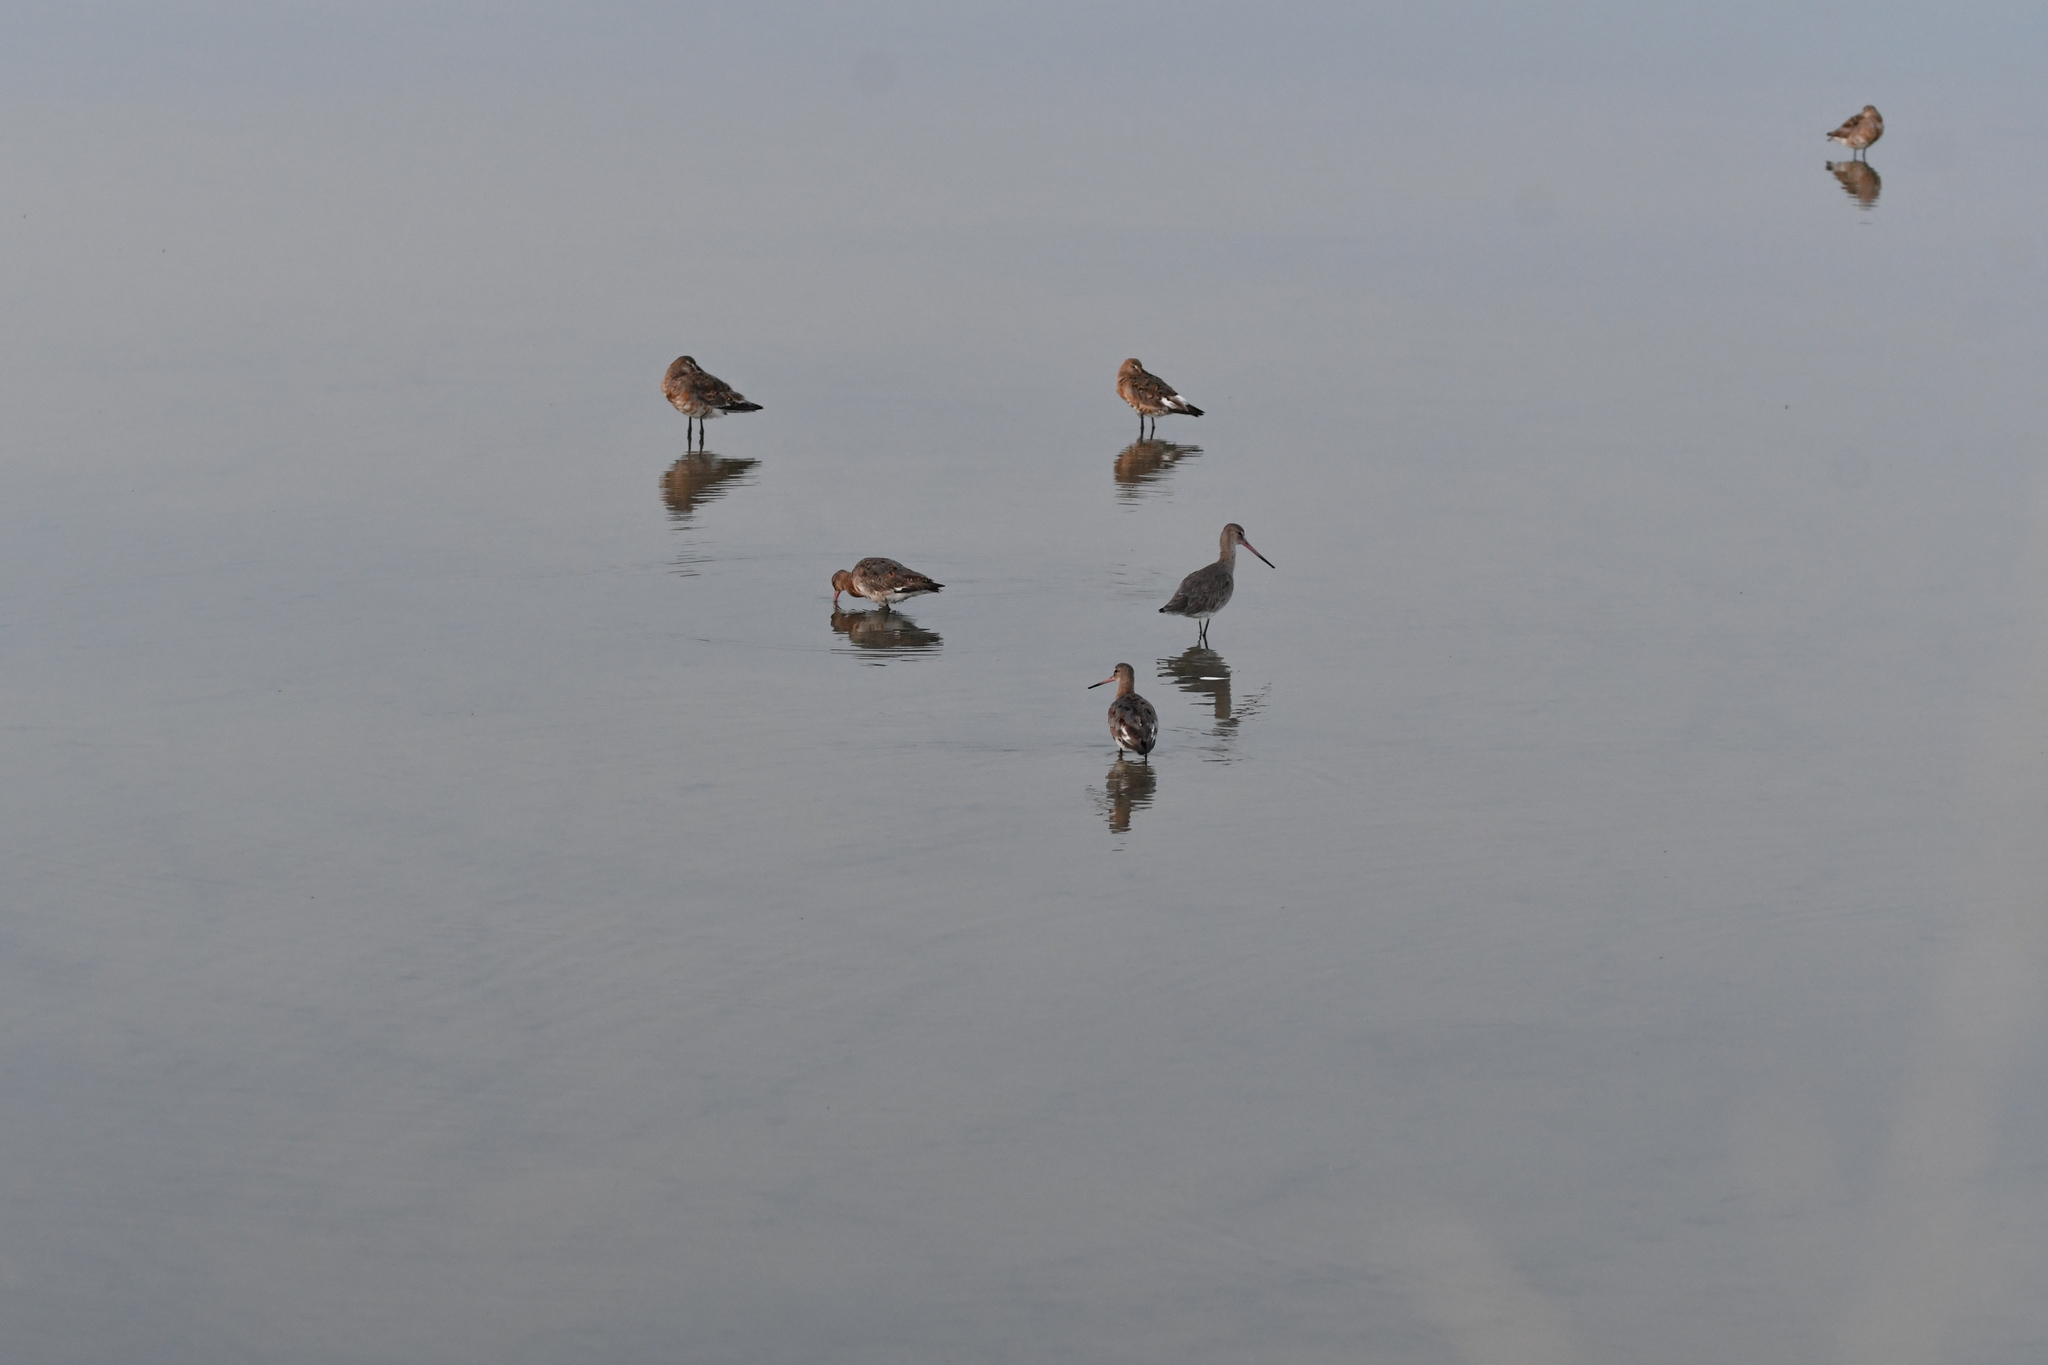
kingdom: Animalia
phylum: Chordata
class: Aves
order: Charadriiformes
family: Scolopacidae
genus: Limosa
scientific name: Limosa limosa
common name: Black-tailed godwit
